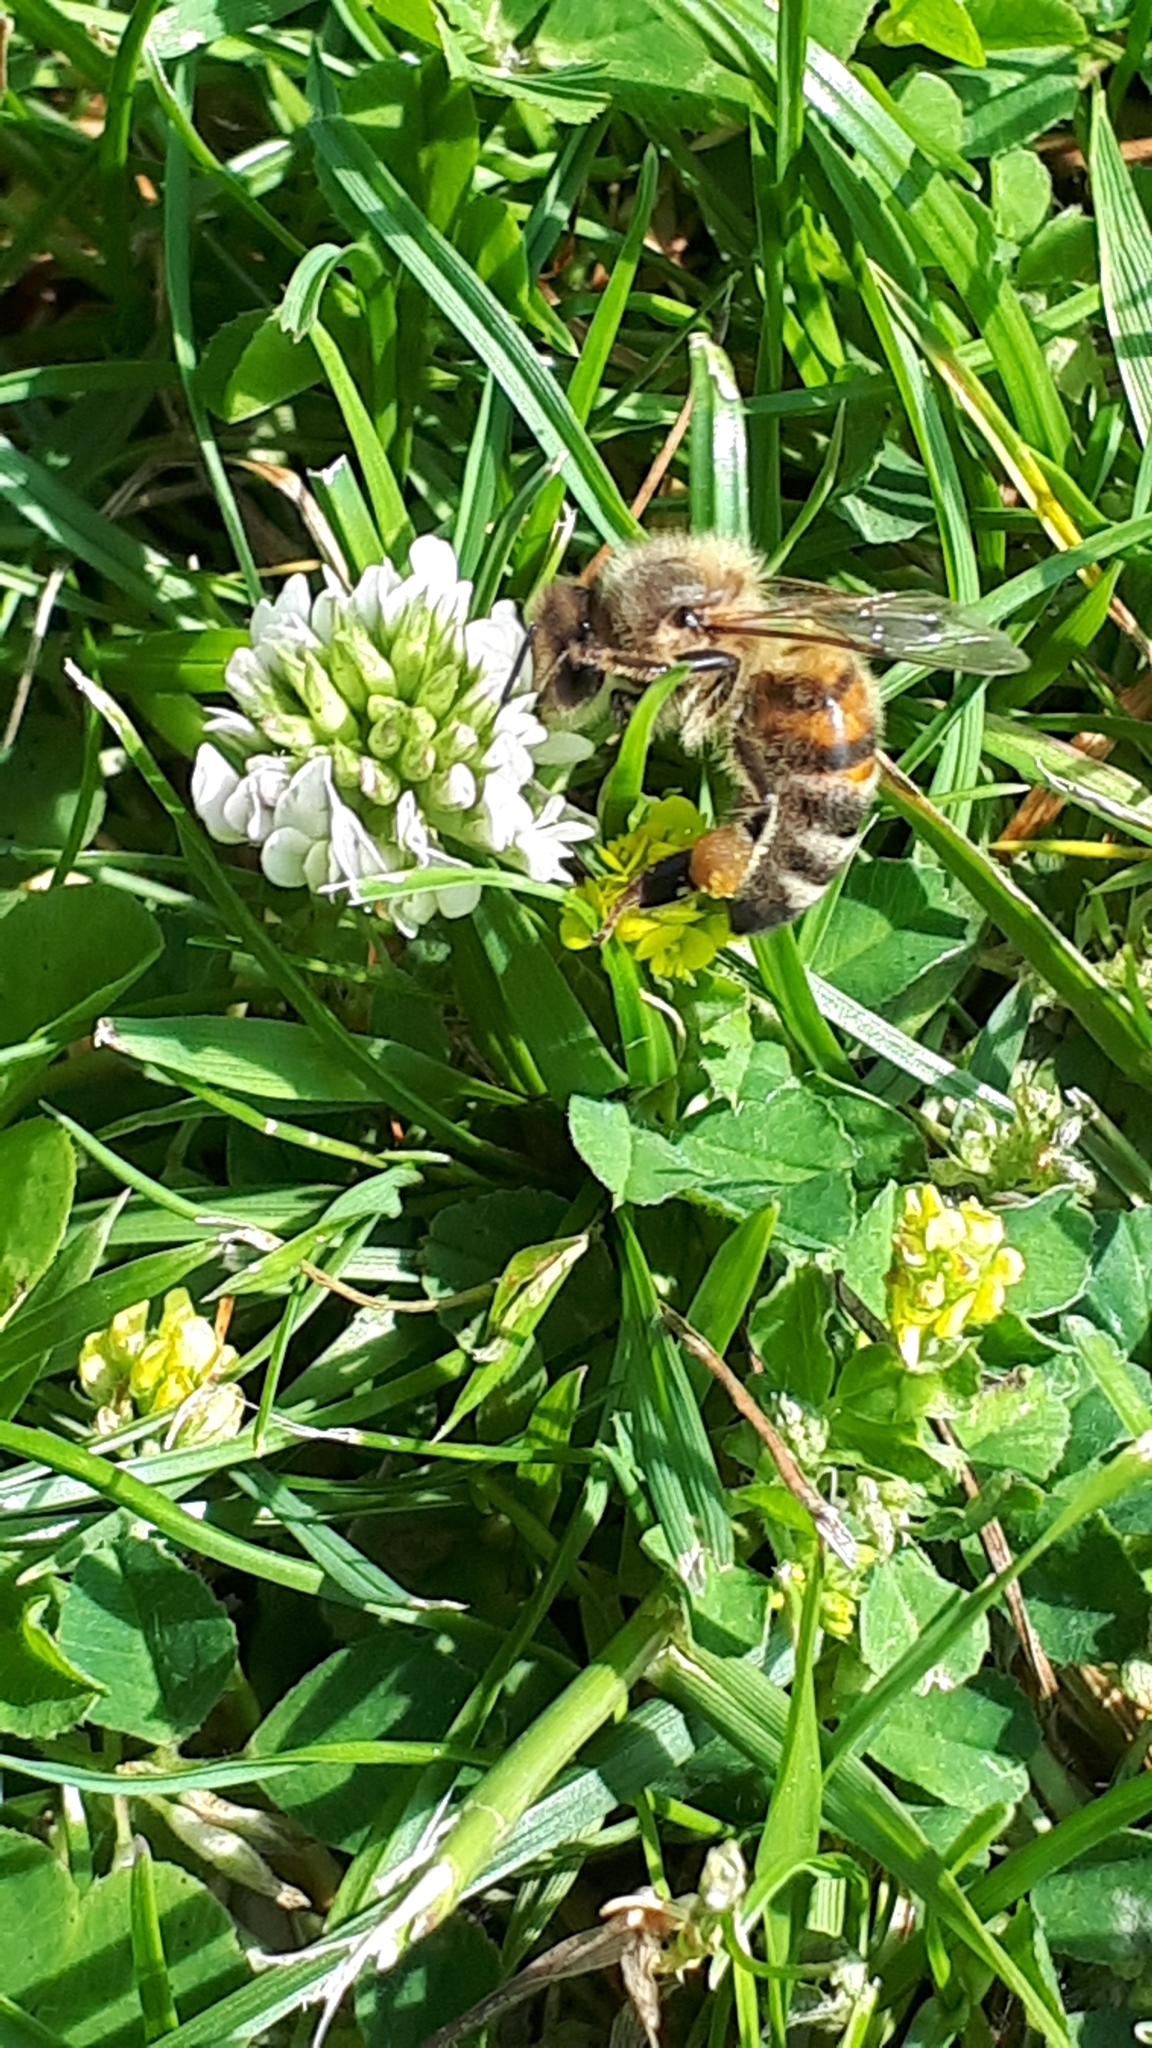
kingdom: Animalia
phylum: Arthropoda
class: Insecta
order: Hymenoptera
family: Apidae
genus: Apis
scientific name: Apis mellifera
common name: Honey bee
